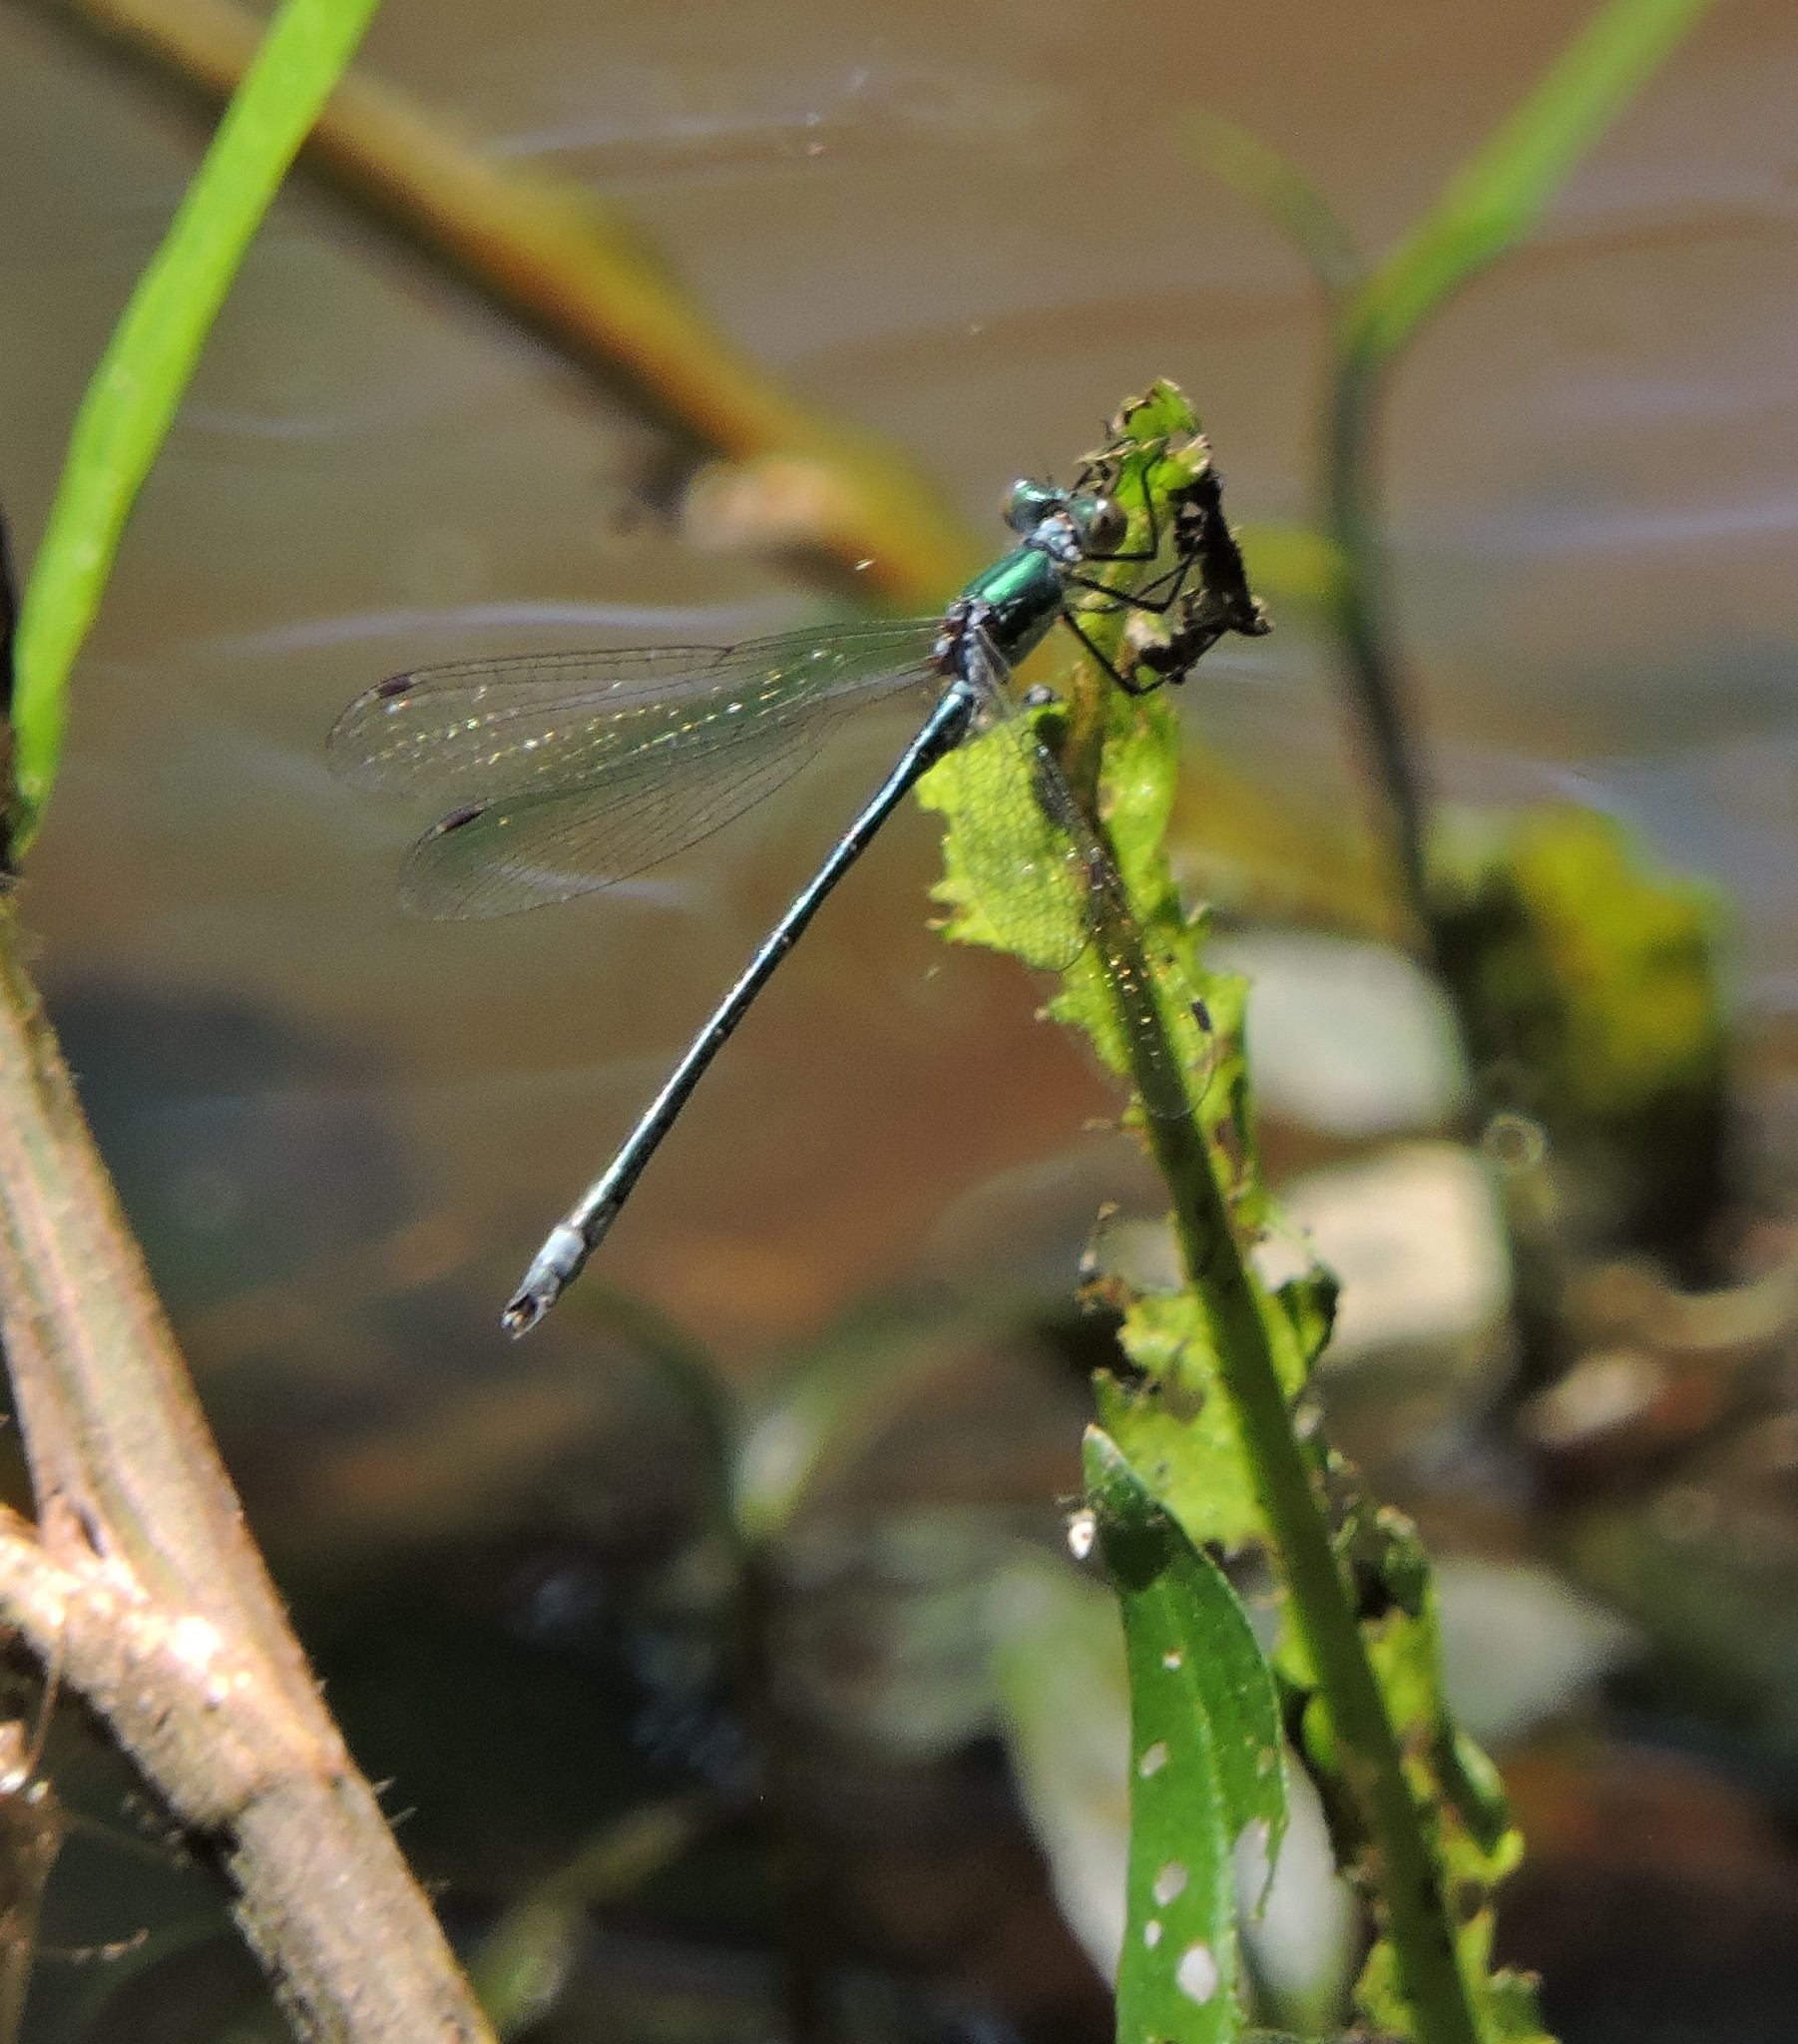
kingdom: Animalia
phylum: Arthropoda
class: Insecta
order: Odonata
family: Lestidae
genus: Lestes
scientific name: Lestes dryas
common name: Scarce emerald damselfly
